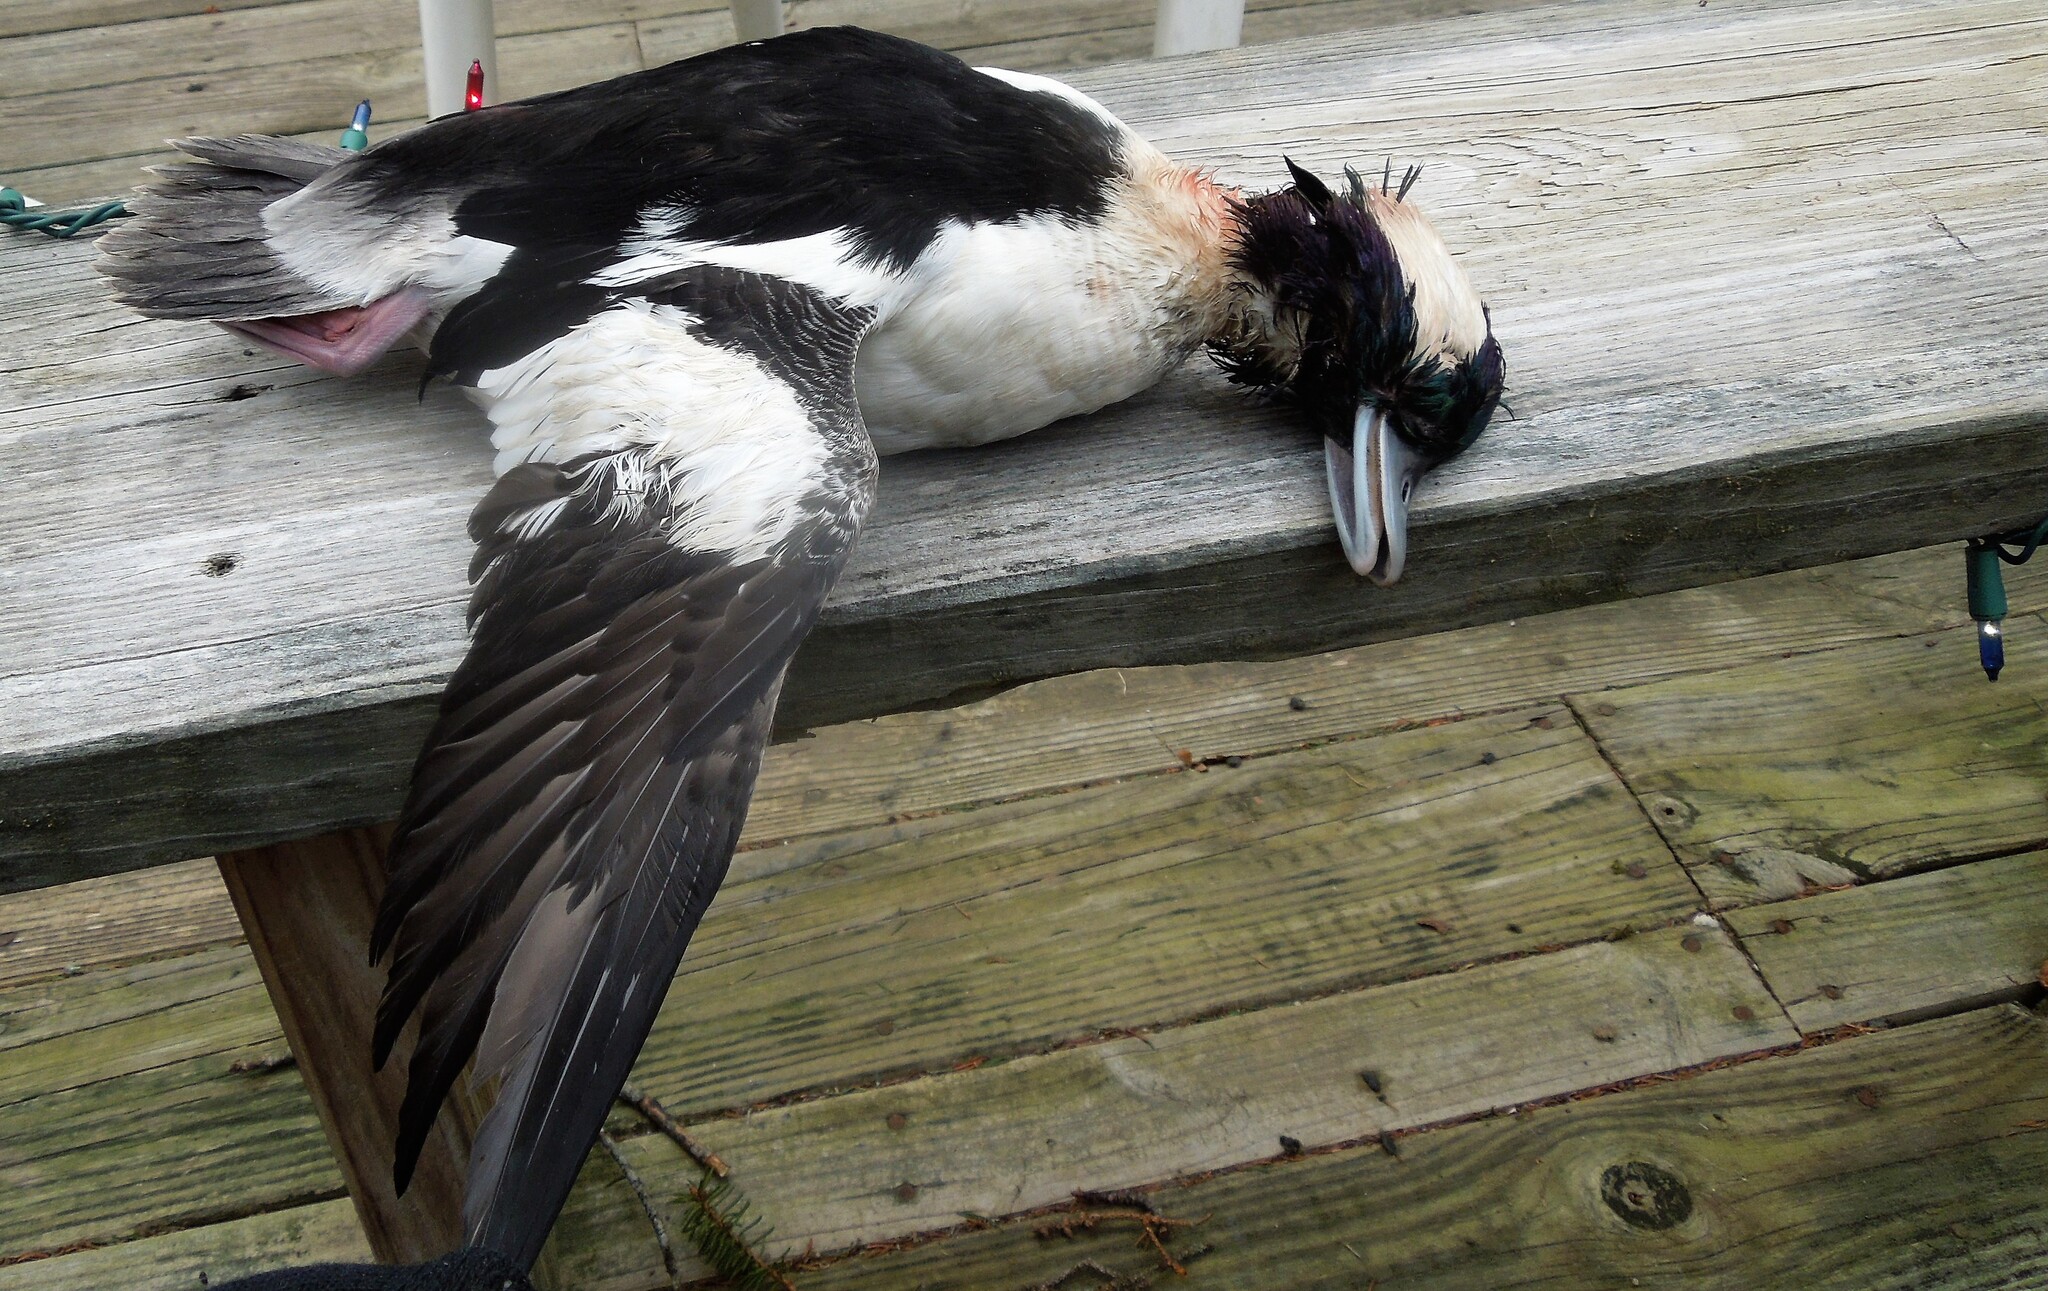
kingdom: Animalia
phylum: Chordata
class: Aves
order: Anseriformes
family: Anatidae
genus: Bucephala
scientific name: Bucephala albeola
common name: Bufflehead
